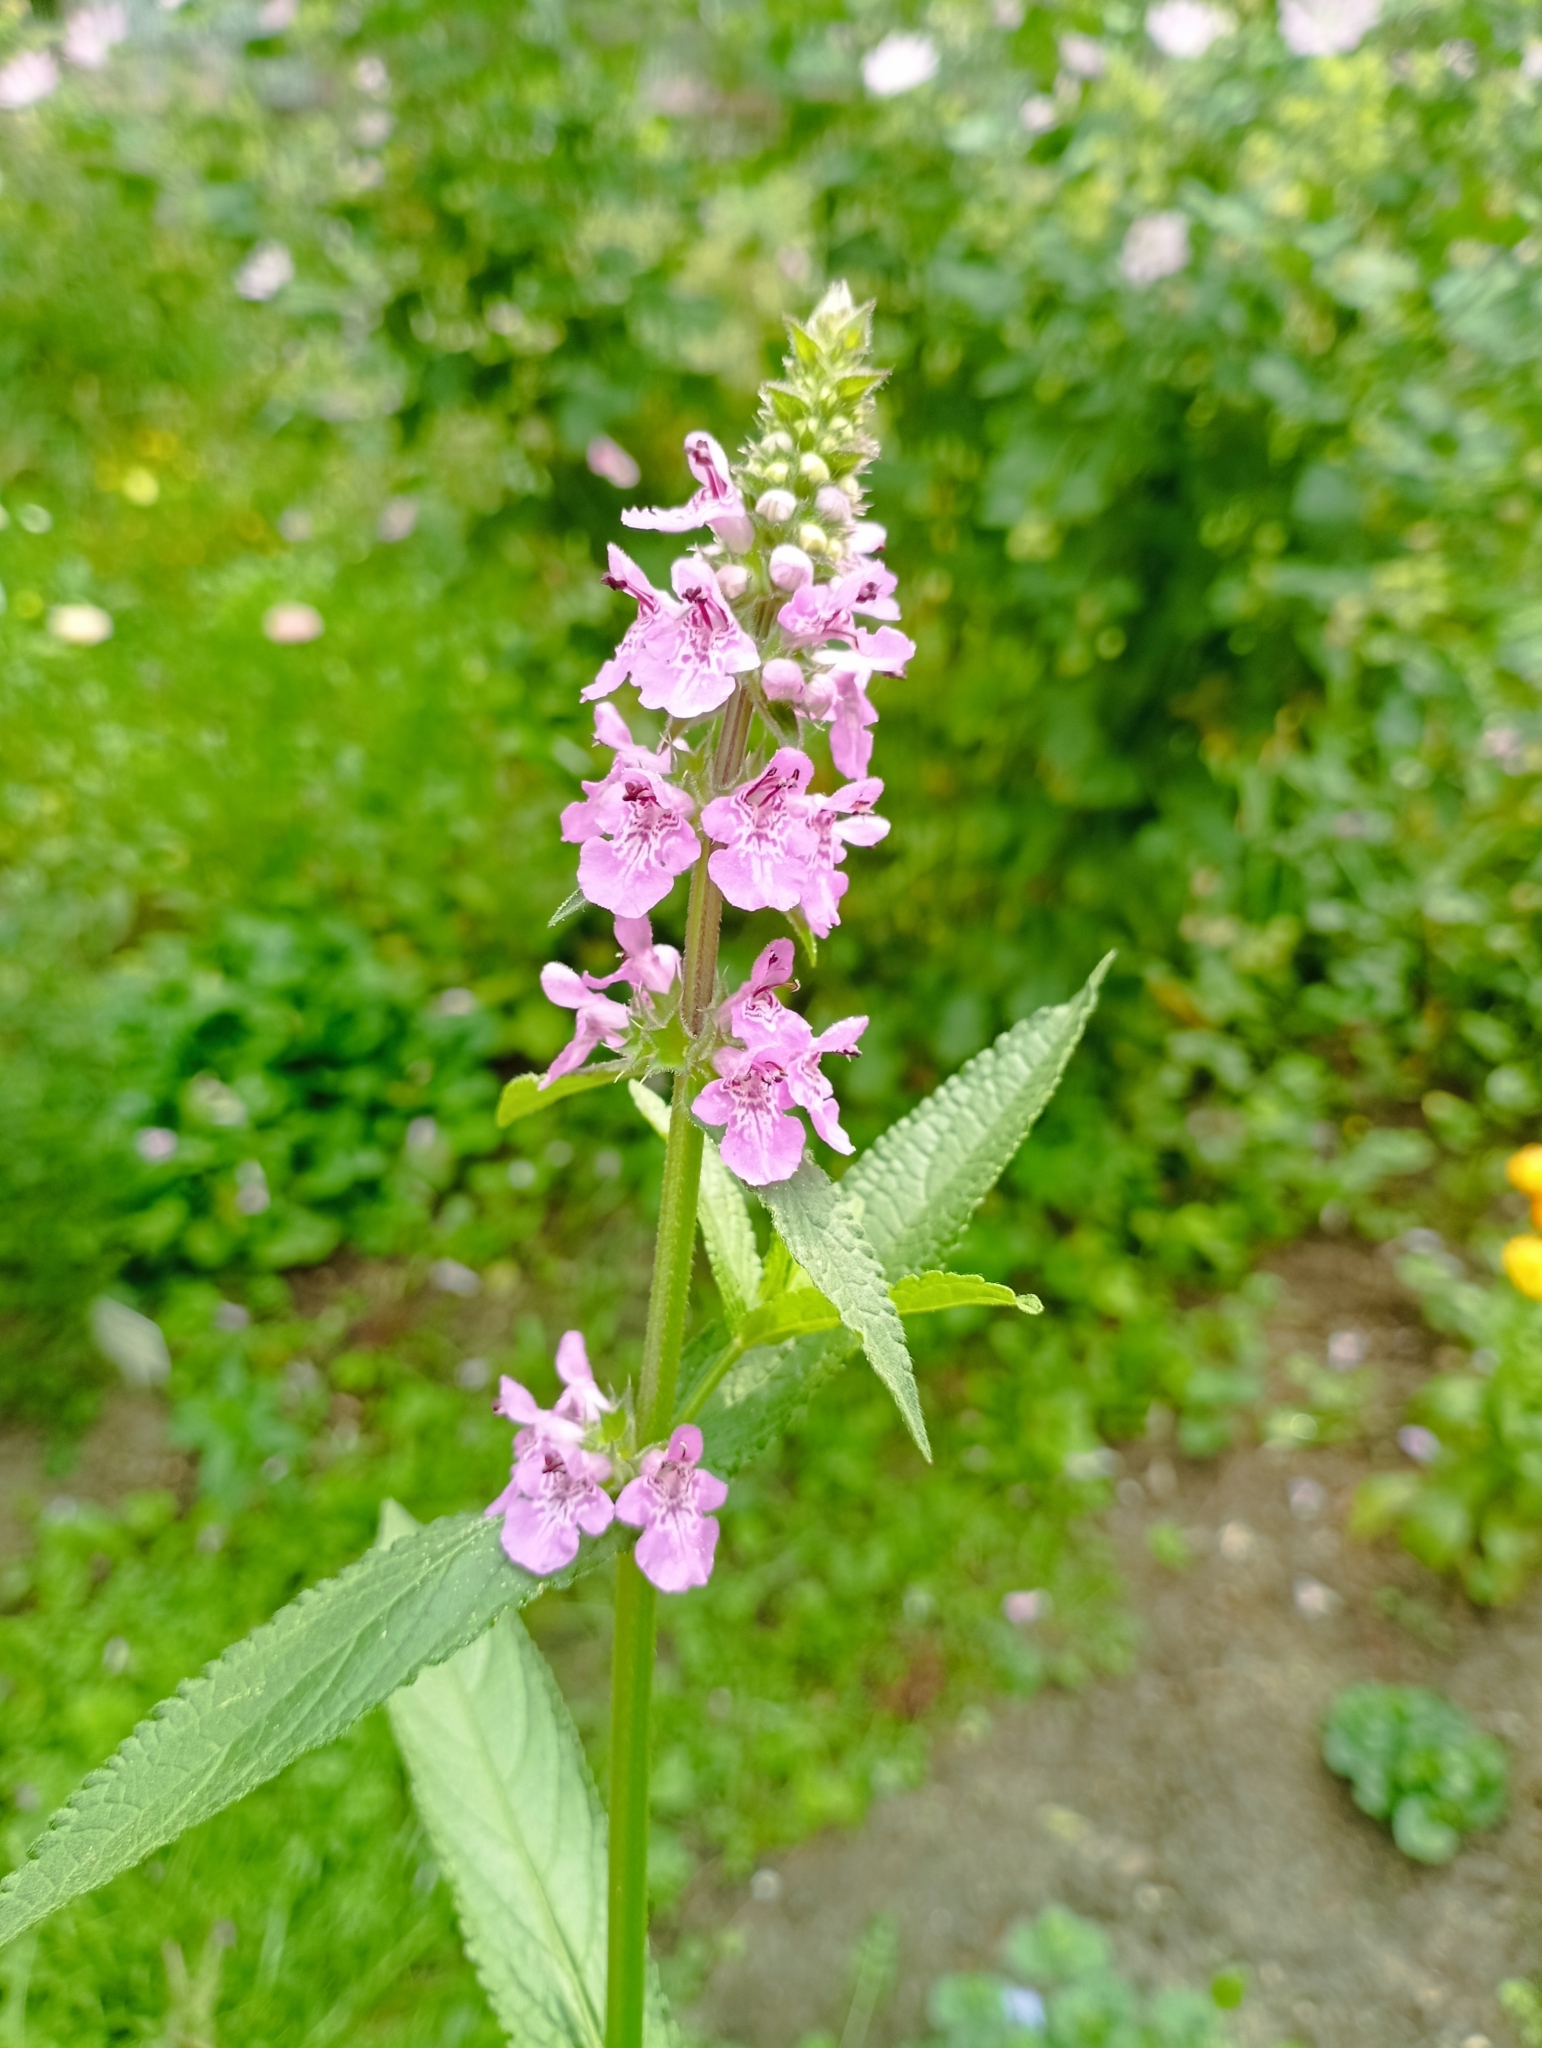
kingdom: Plantae
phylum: Tracheophyta
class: Magnoliopsida
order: Lamiales
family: Lamiaceae
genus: Stachys
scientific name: Stachys palustris
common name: Marsh woundwort
